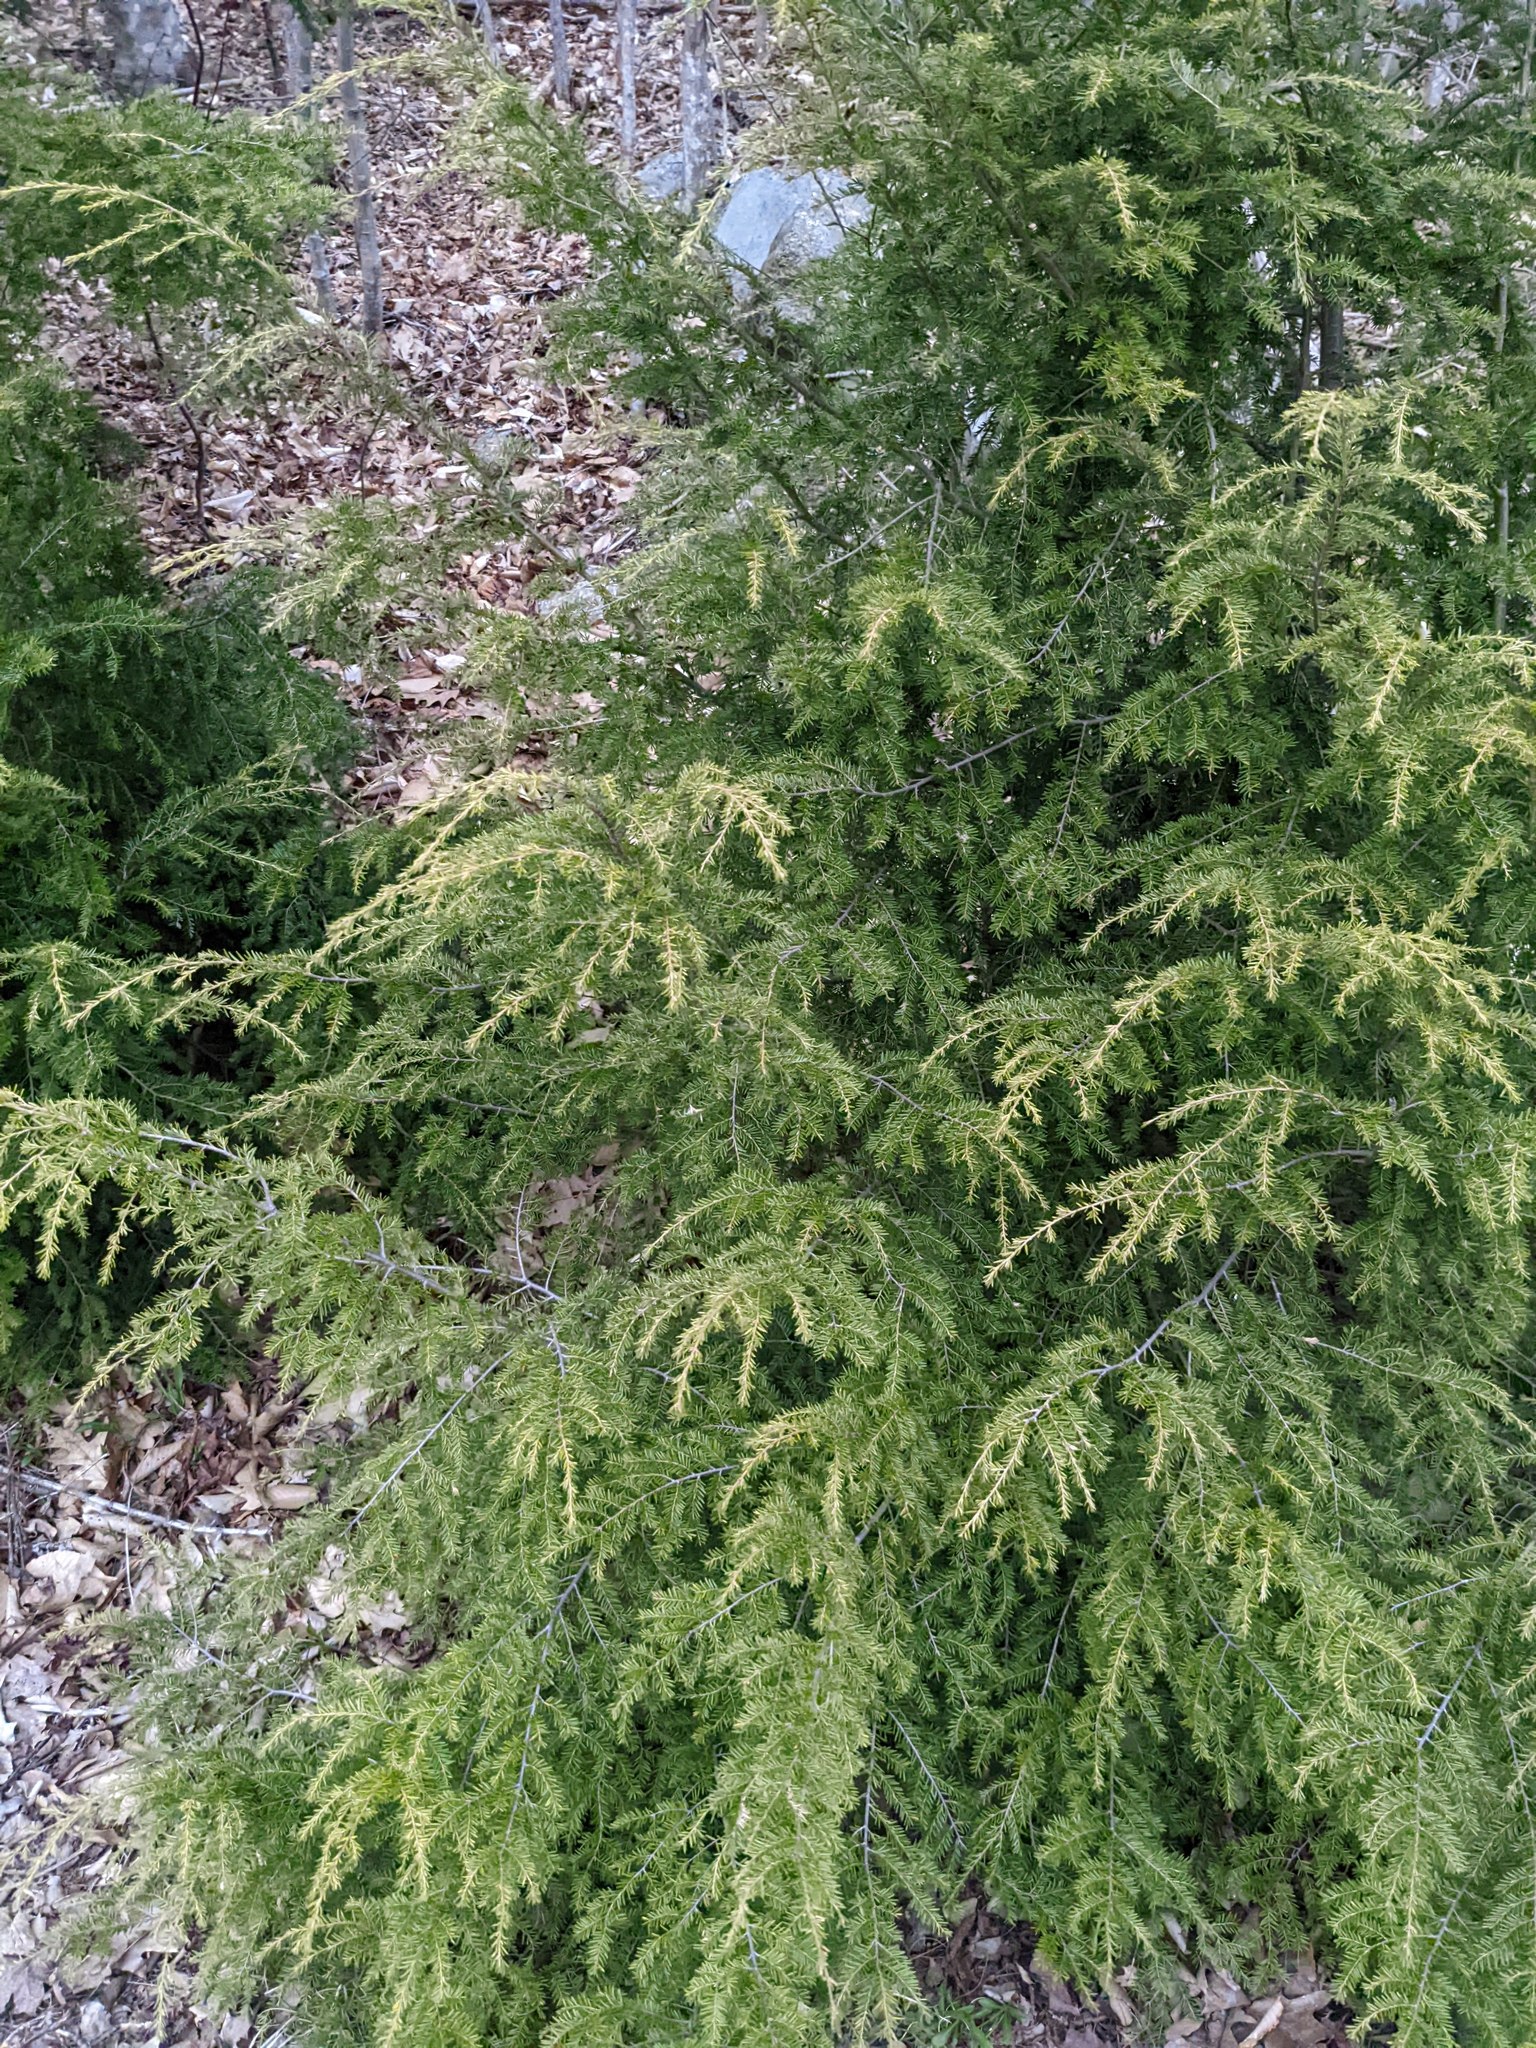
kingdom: Plantae
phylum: Tracheophyta
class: Pinopsida
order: Pinales
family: Pinaceae
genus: Tsuga
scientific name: Tsuga canadensis
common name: Eastern hemlock
